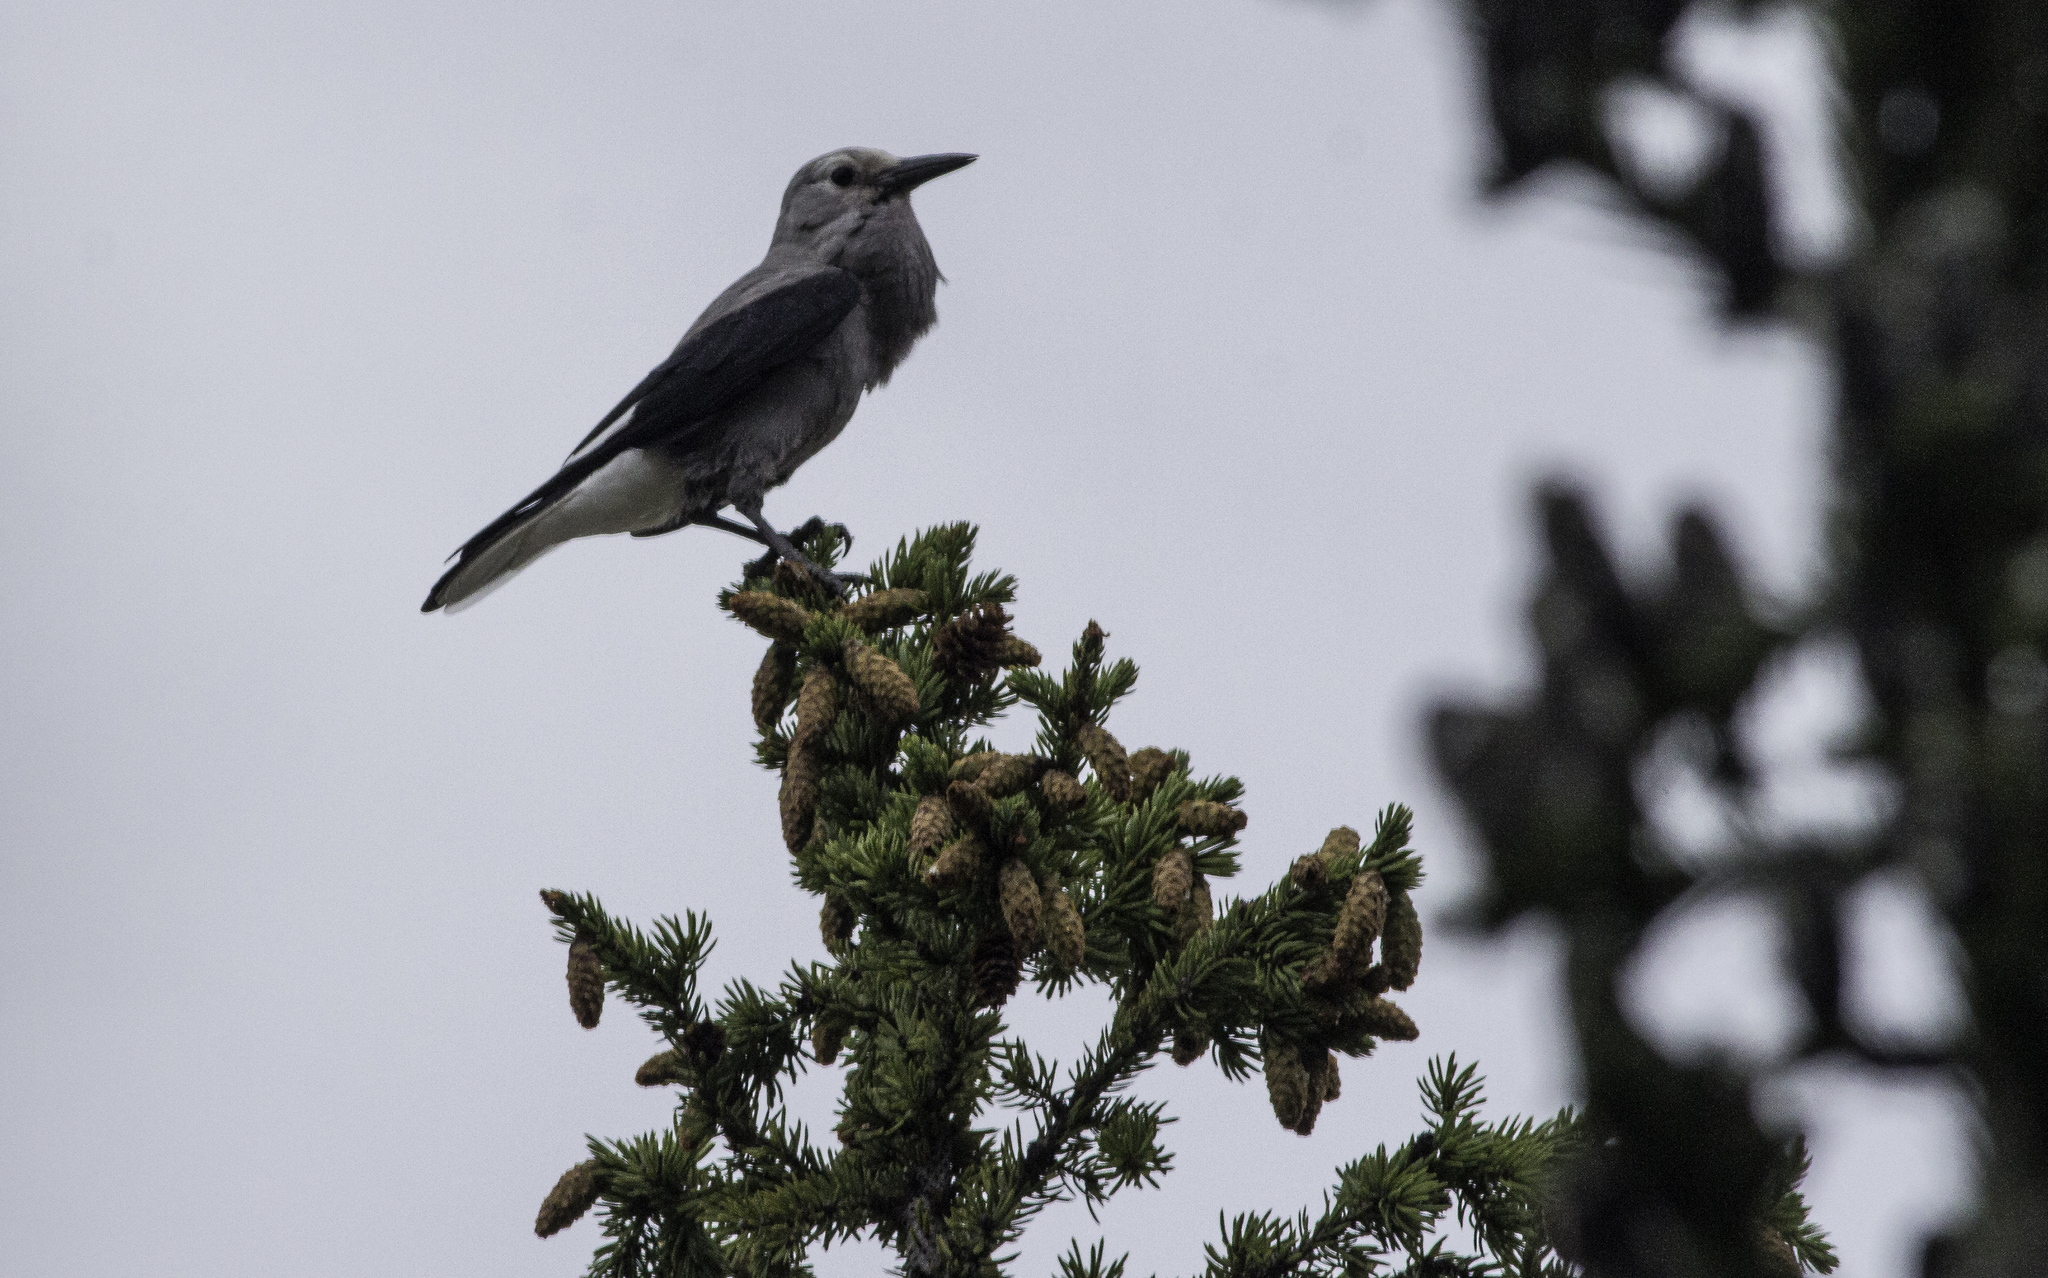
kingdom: Animalia
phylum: Chordata
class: Aves
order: Passeriformes
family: Corvidae
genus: Nucifraga
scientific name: Nucifraga columbiana
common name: Clark's nutcracker
